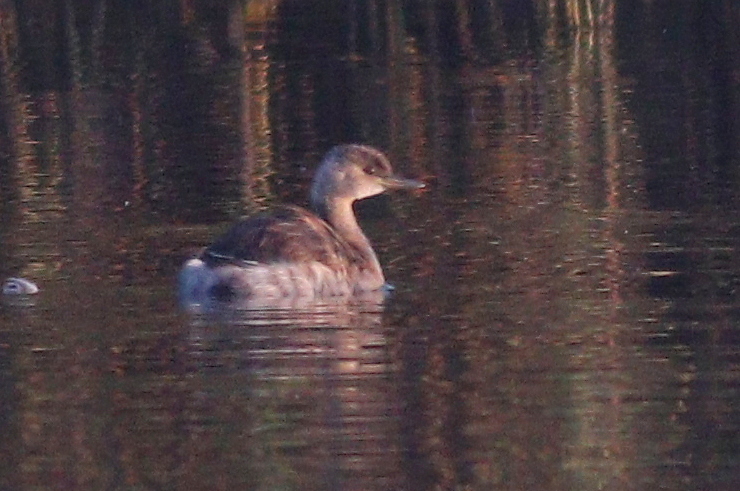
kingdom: Animalia
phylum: Chordata
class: Aves
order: Podicipediformes
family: Podicipedidae
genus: Podiceps
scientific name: Podiceps nigricollis
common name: Black-necked grebe
